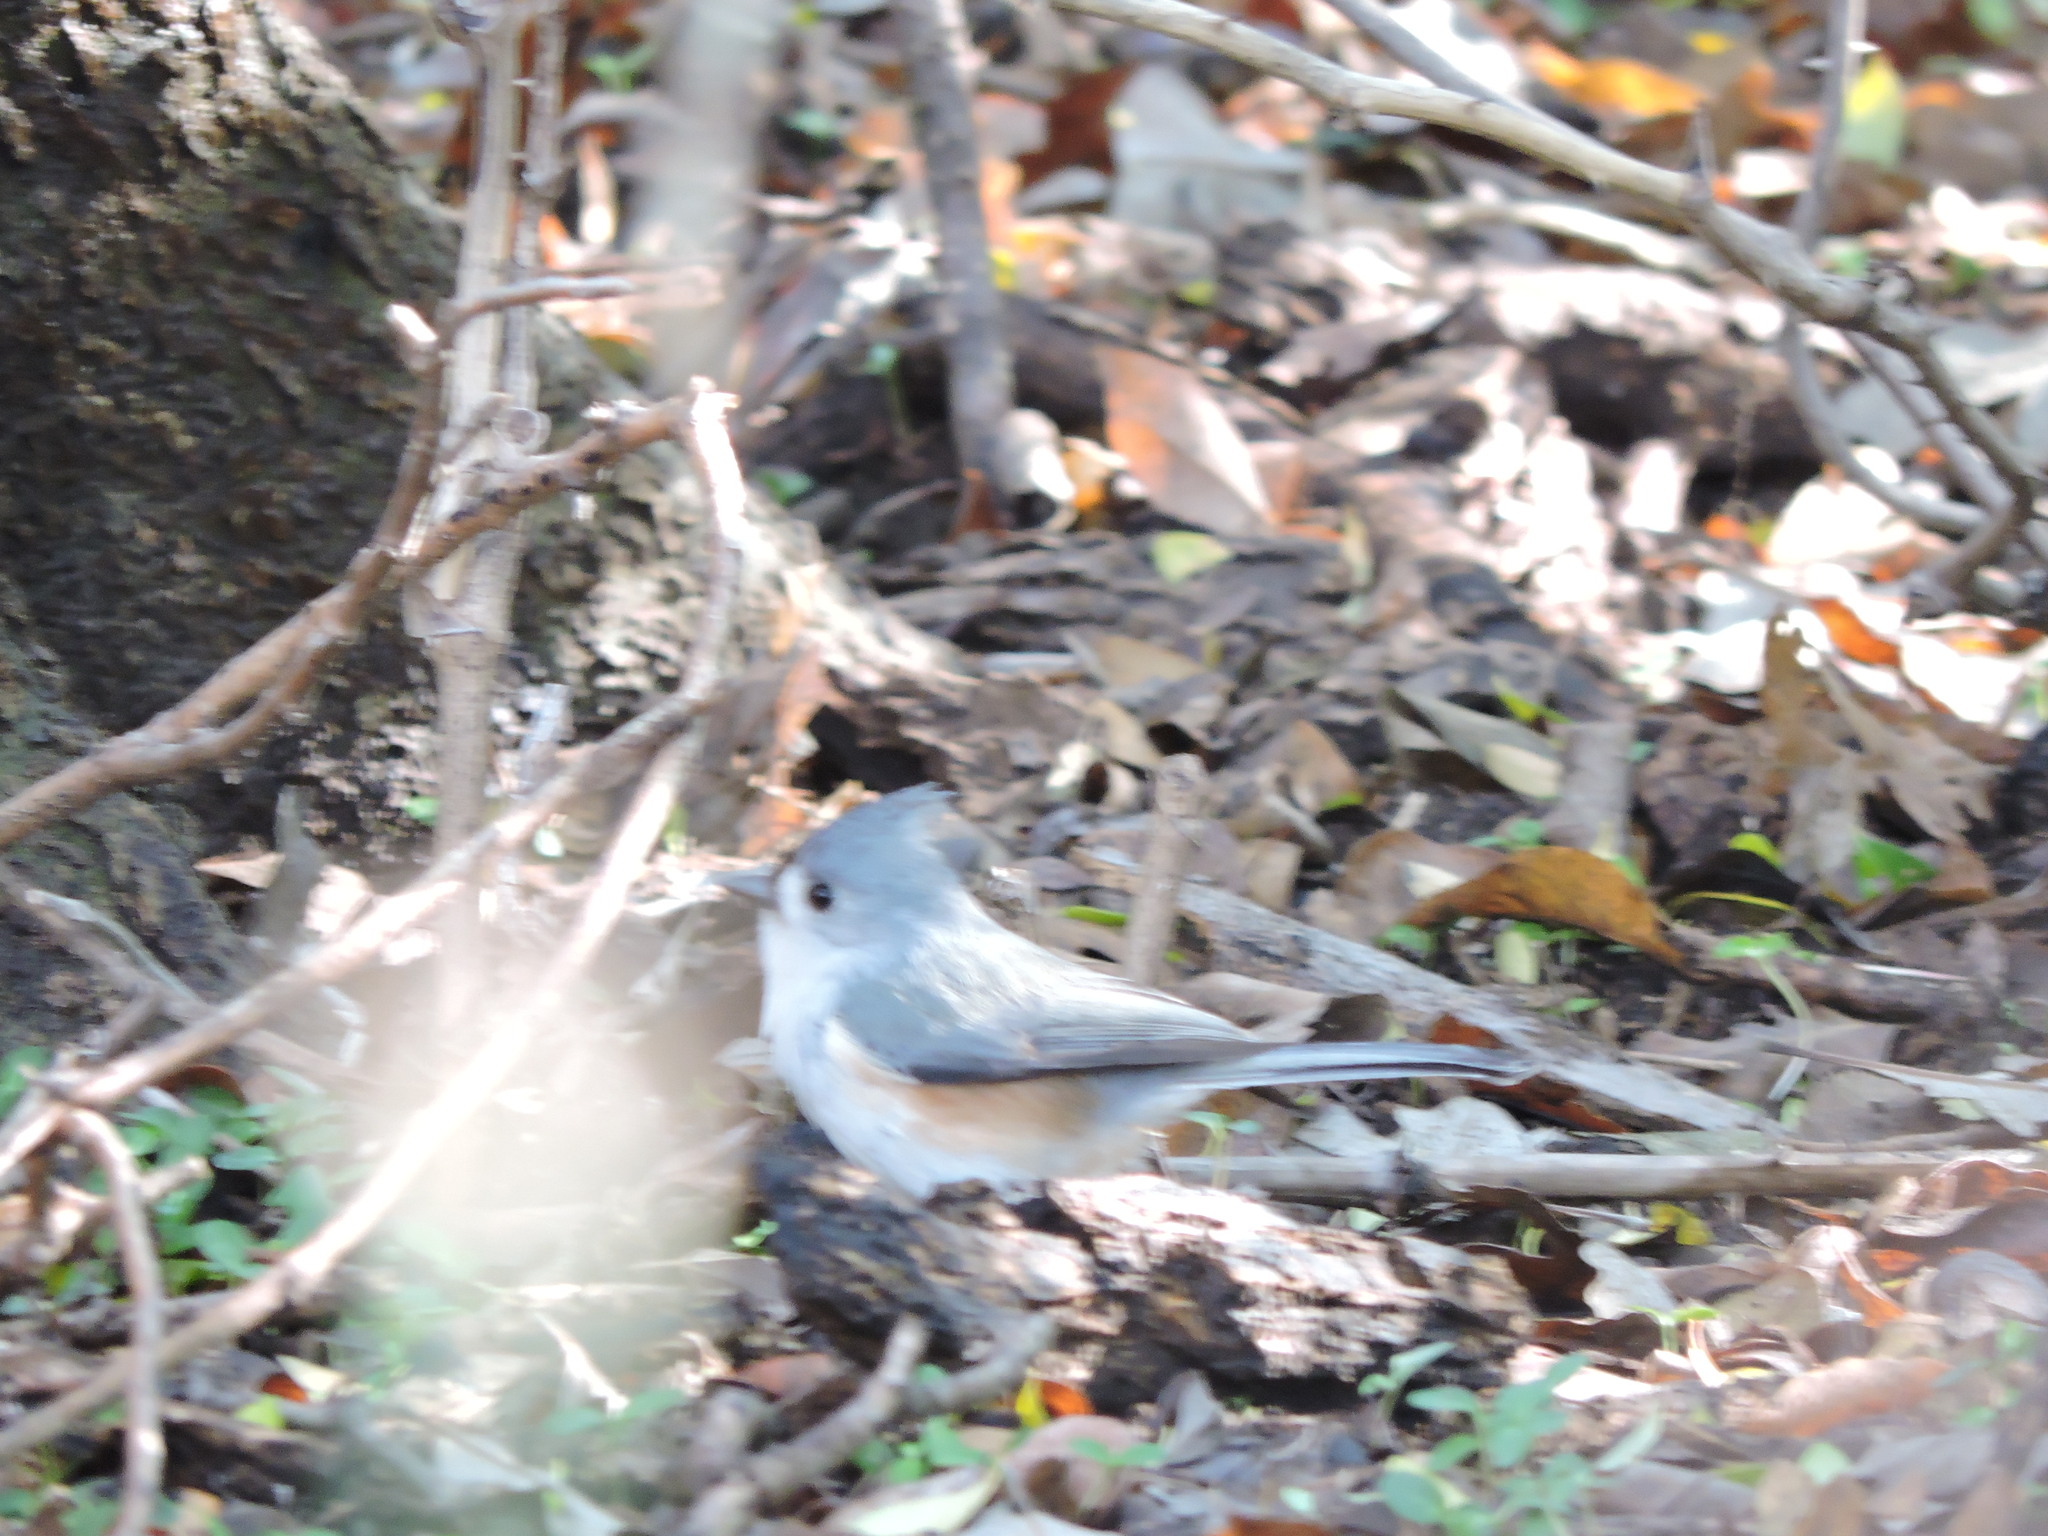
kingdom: Animalia
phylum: Chordata
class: Aves
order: Passeriformes
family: Paridae
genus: Baeolophus
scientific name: Baeolophus bicolor
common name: Tufted titmouse
